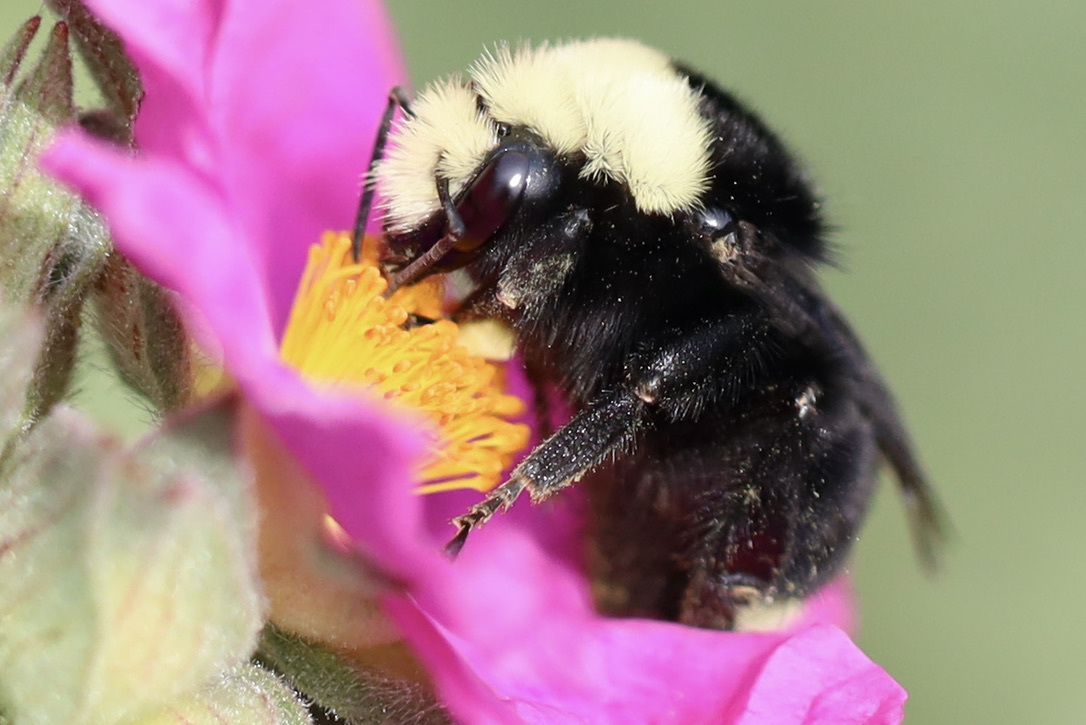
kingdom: Animalia
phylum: Arthropoda
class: Insecta
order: Hymenoptera
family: Apidae
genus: Bombus
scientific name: Bombus vosnesenskii
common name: Vosnesensky bumble bee
